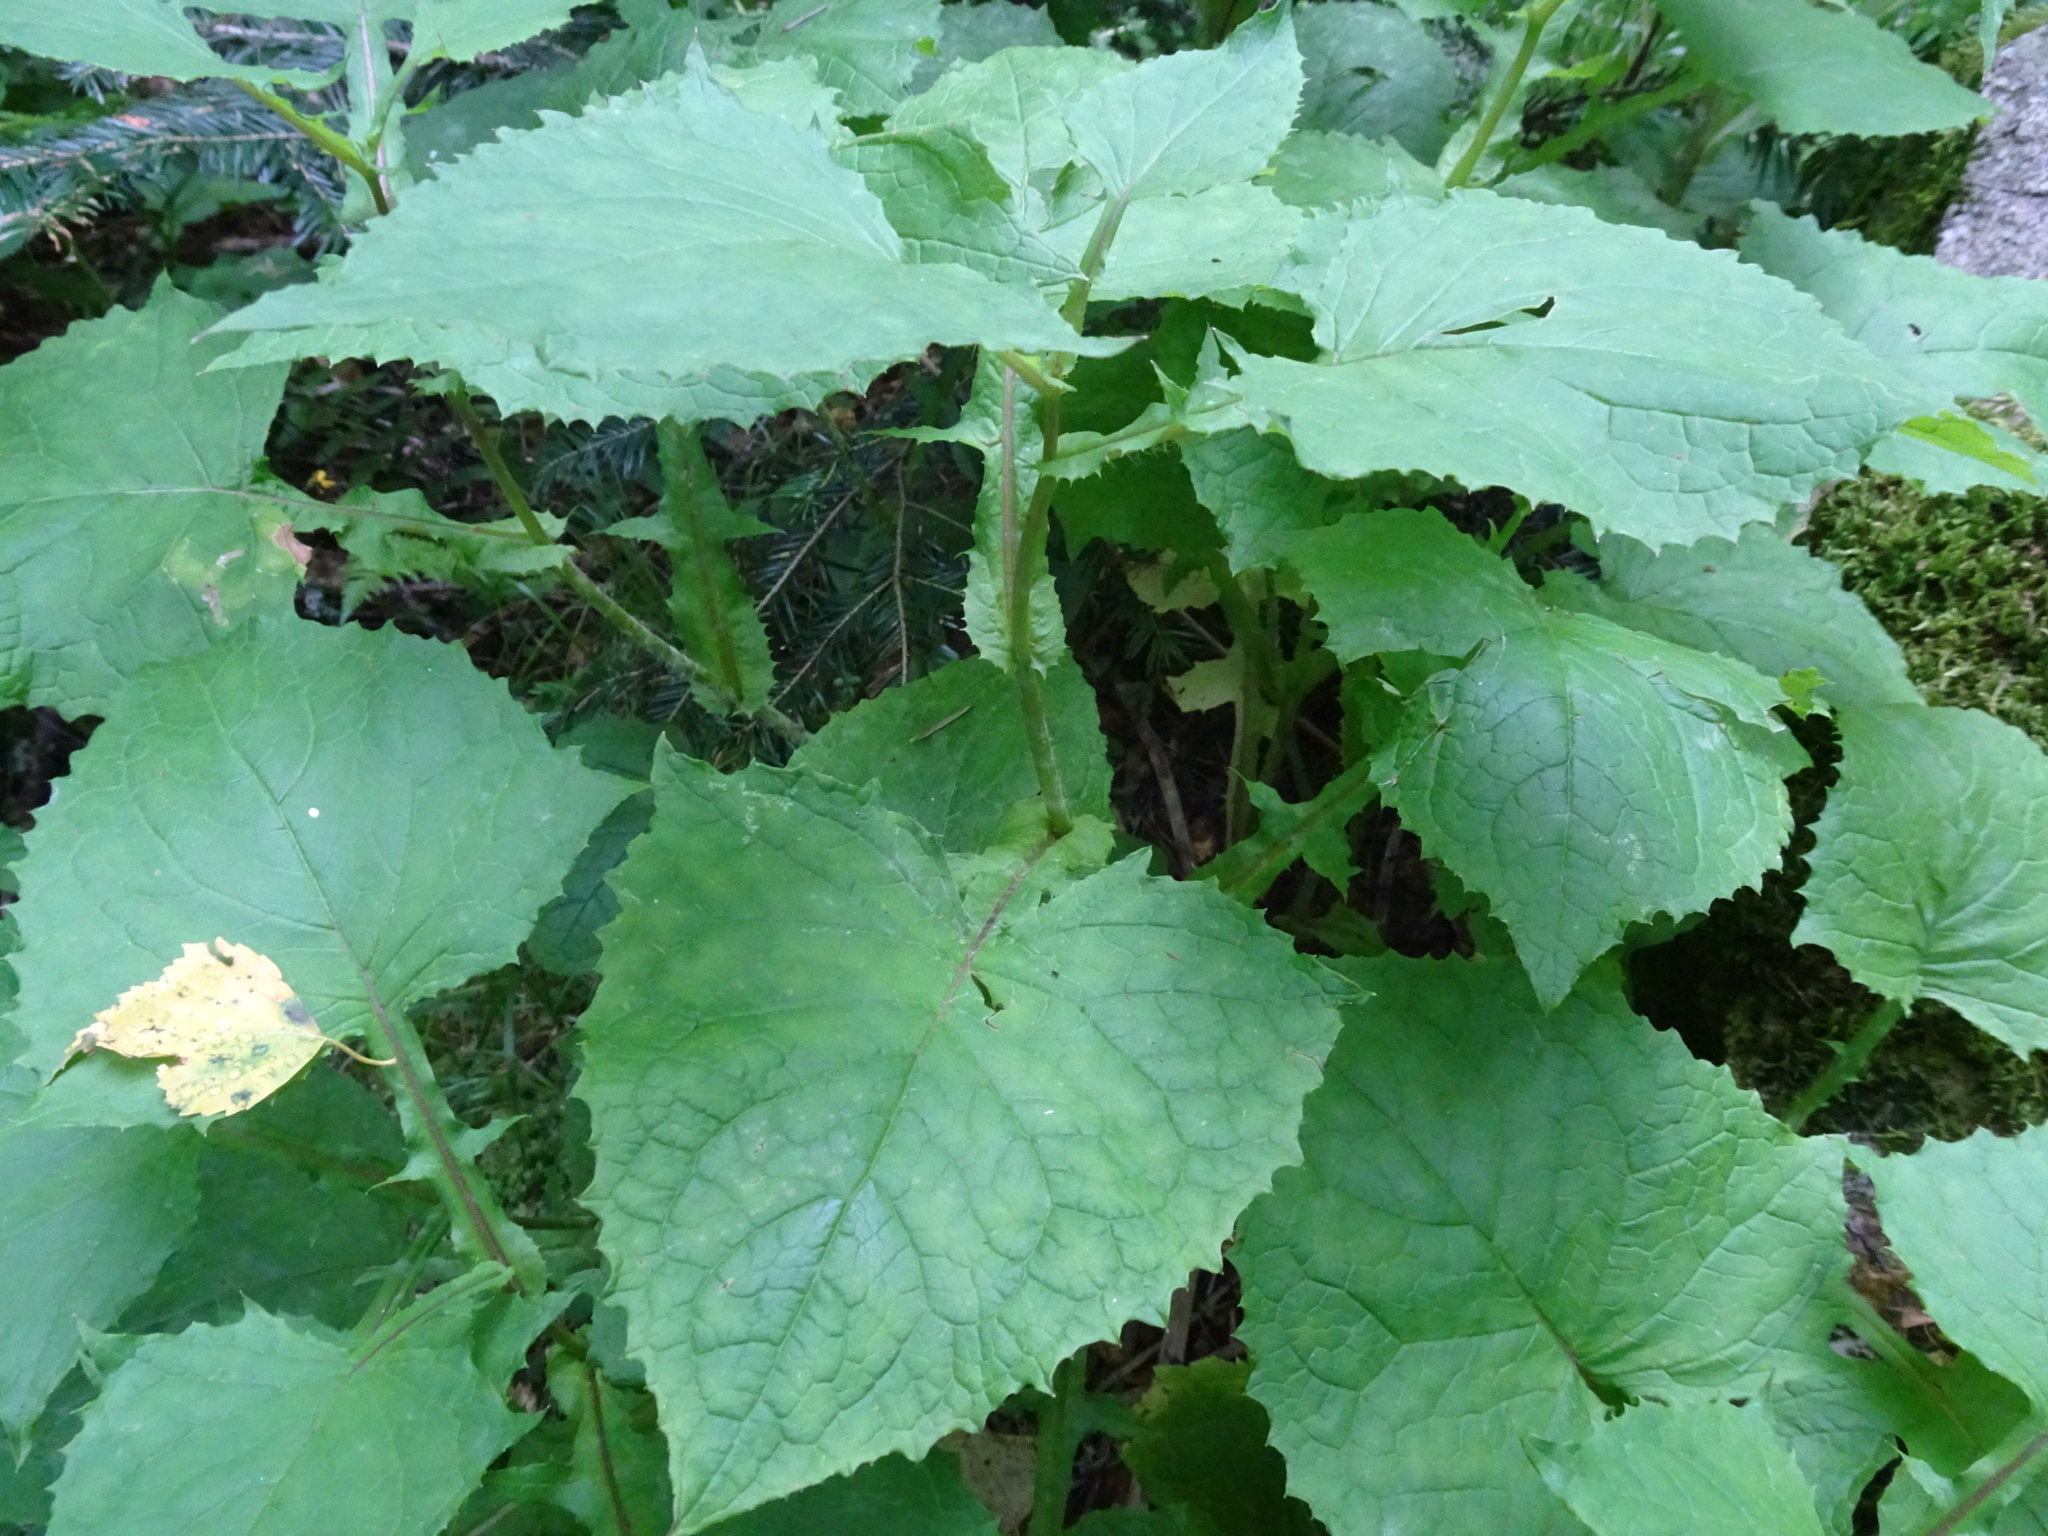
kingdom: Plantae
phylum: Tracheophyta
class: Magnoliopsida
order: Asterales
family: Asteraceae
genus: Cicerbita
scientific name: Cicerbita alpina
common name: Alpine blue-sow-thistle
